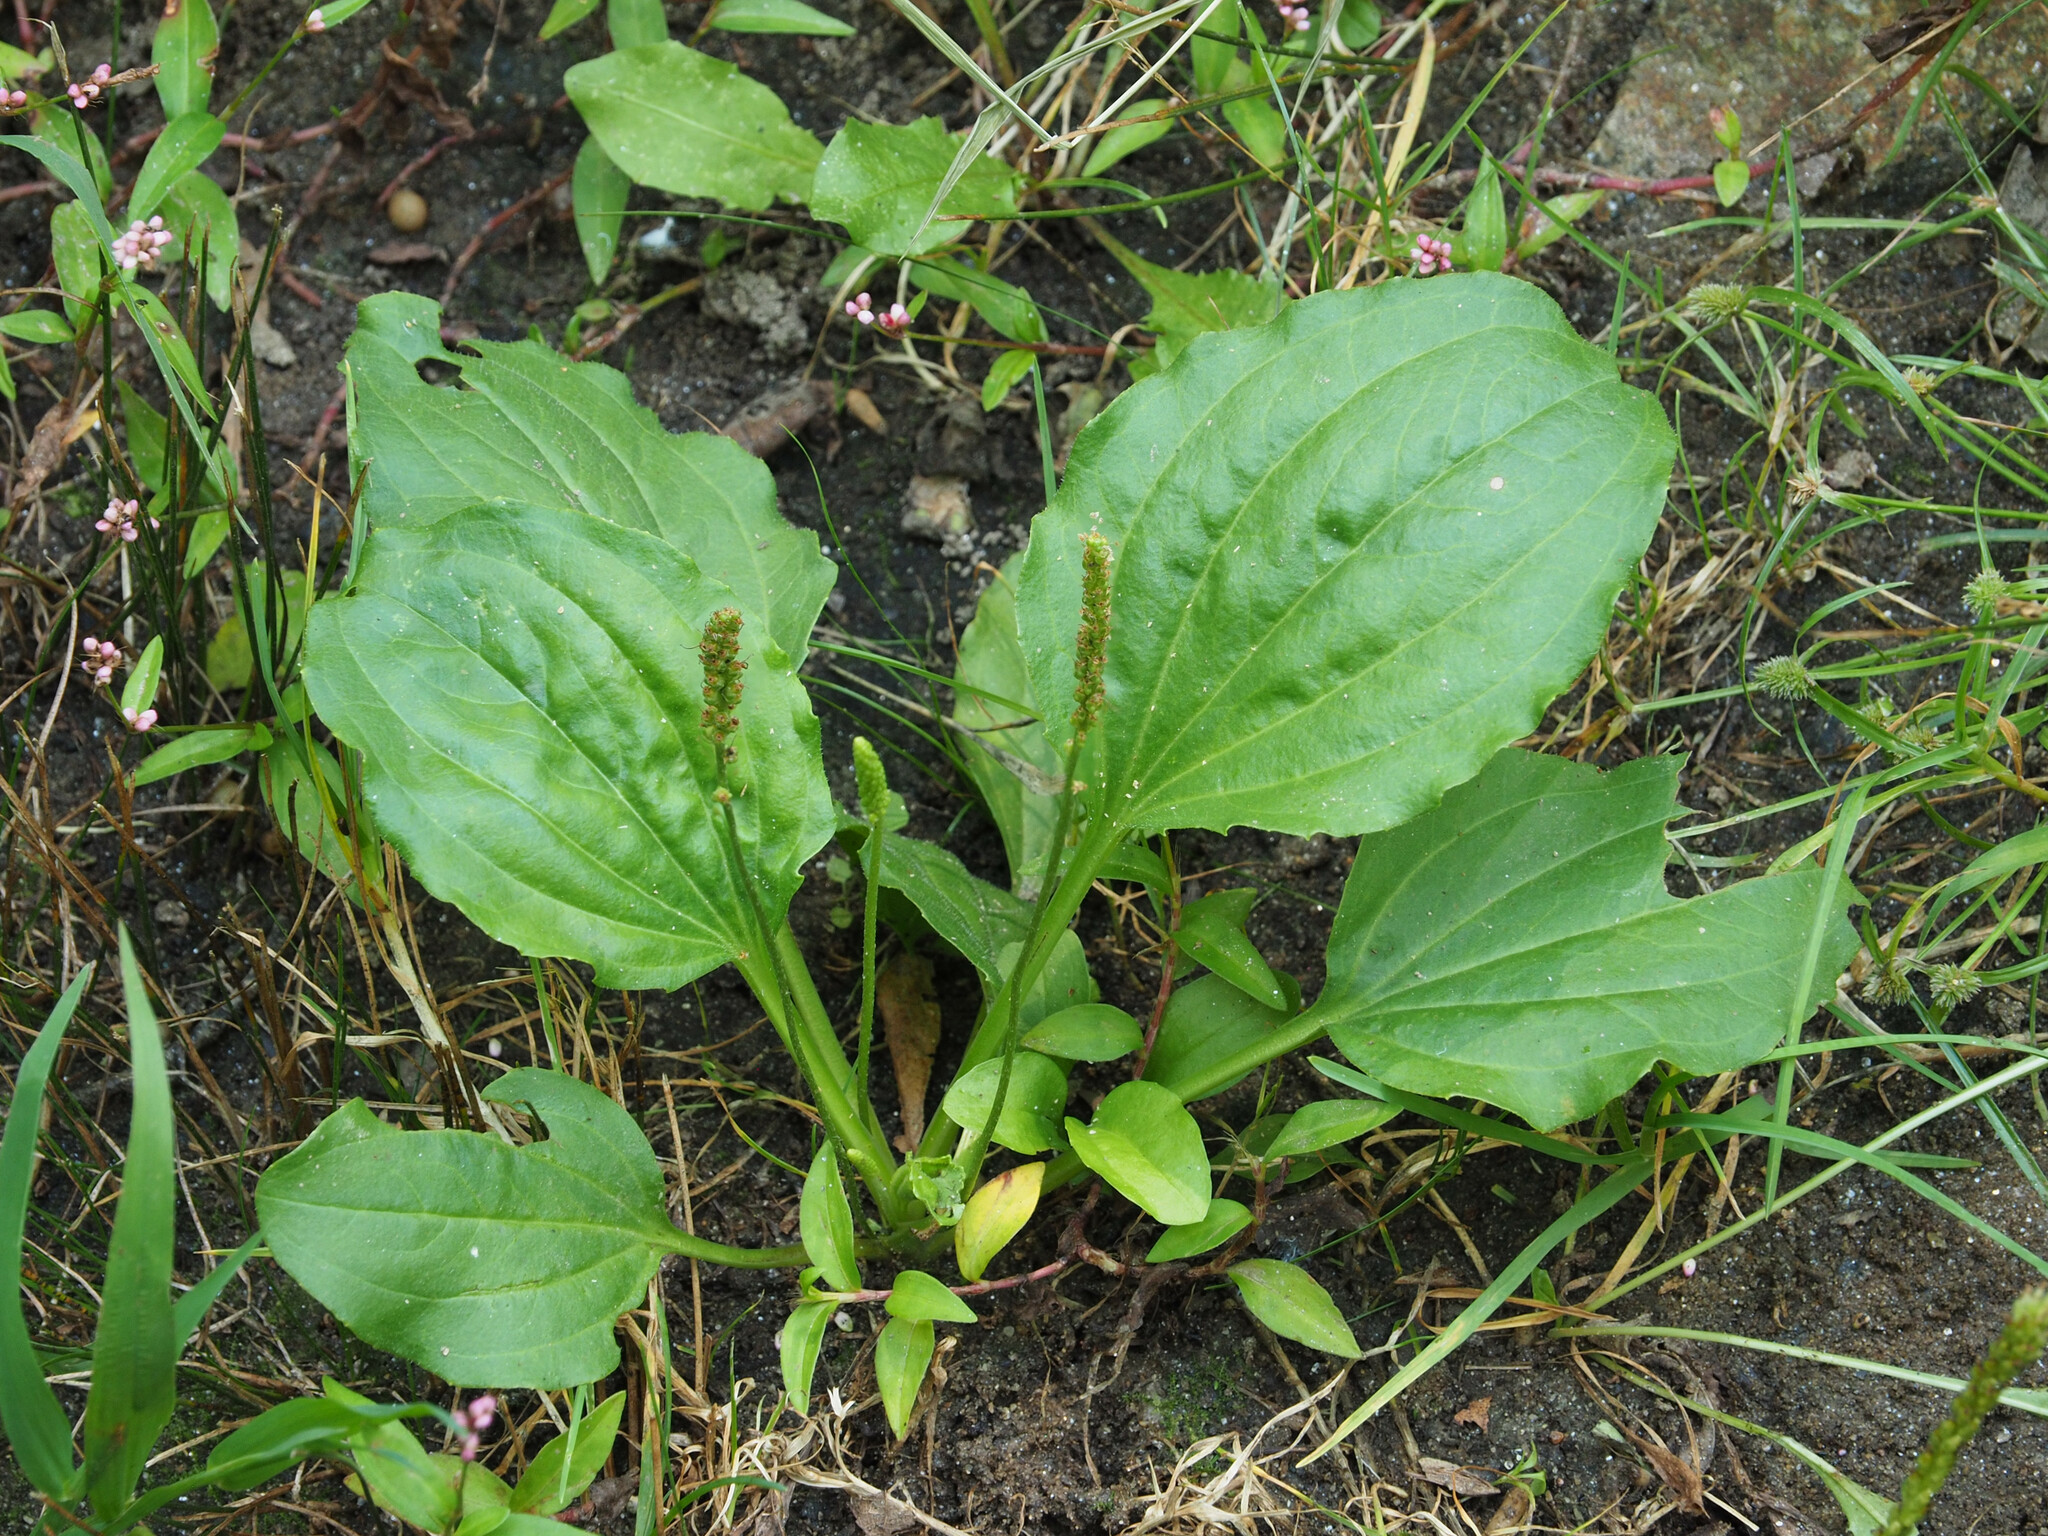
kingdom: Plantae
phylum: Tracheophyta
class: Magnoliopsida
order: Lamiales
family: Plantaginaceae
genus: Plantago
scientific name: Plantago major
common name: Common plantain
